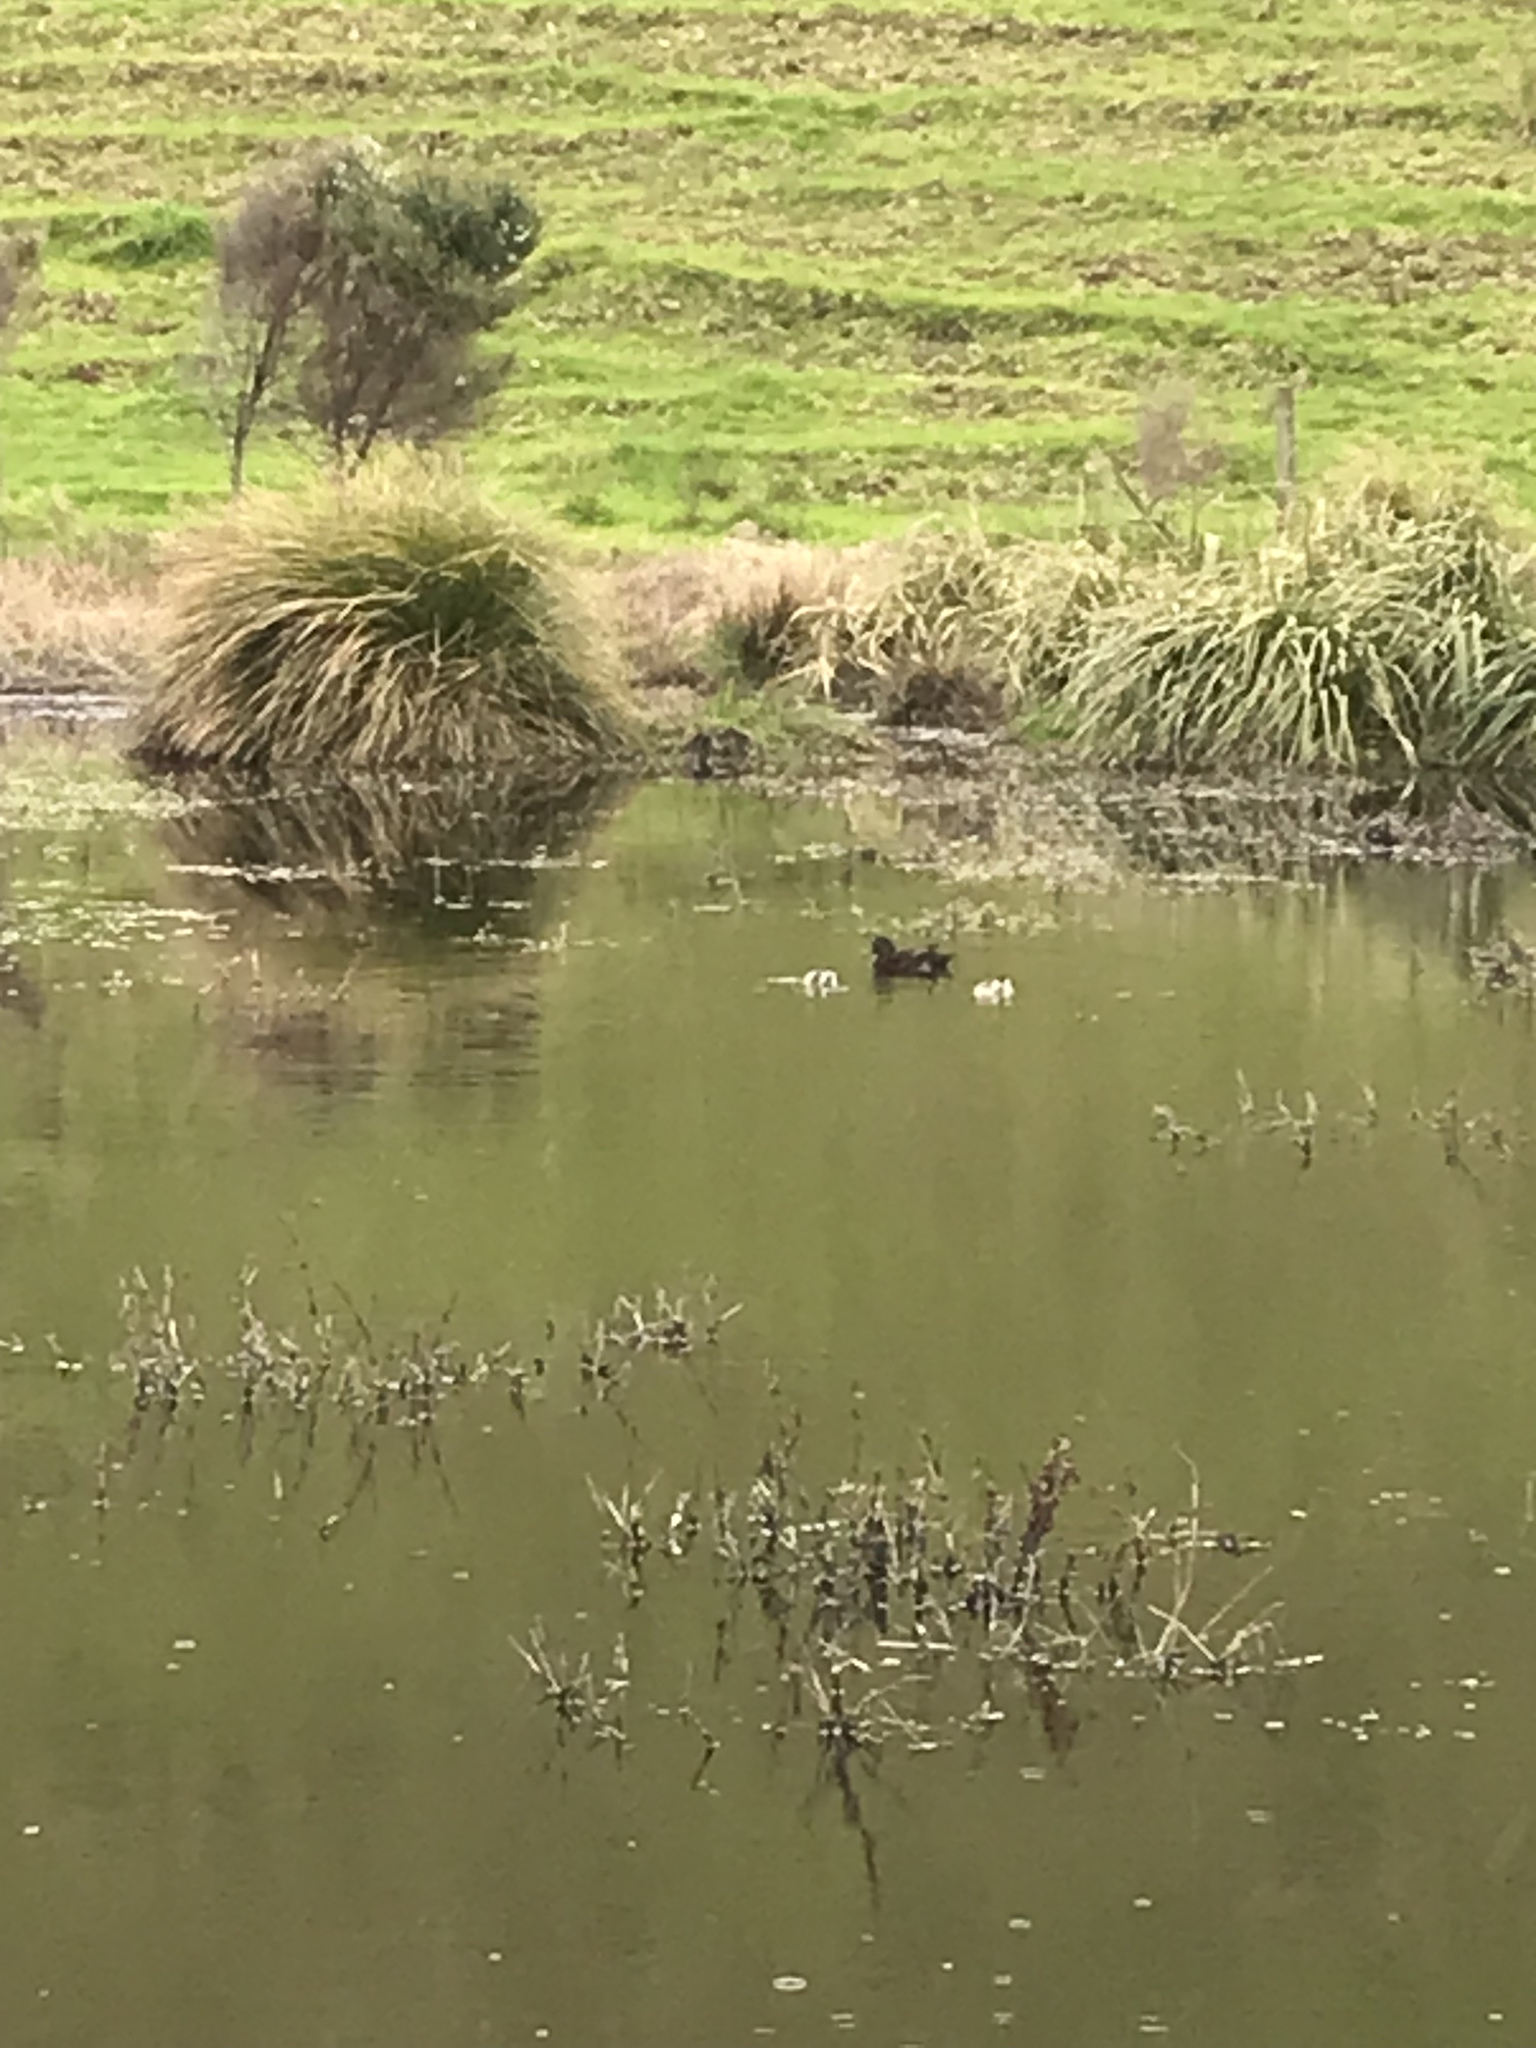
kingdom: Animalia
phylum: Chordata
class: Aves
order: Anseriformes
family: Anatidae
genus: Anas
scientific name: Anas chlorotis
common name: Brown teal
